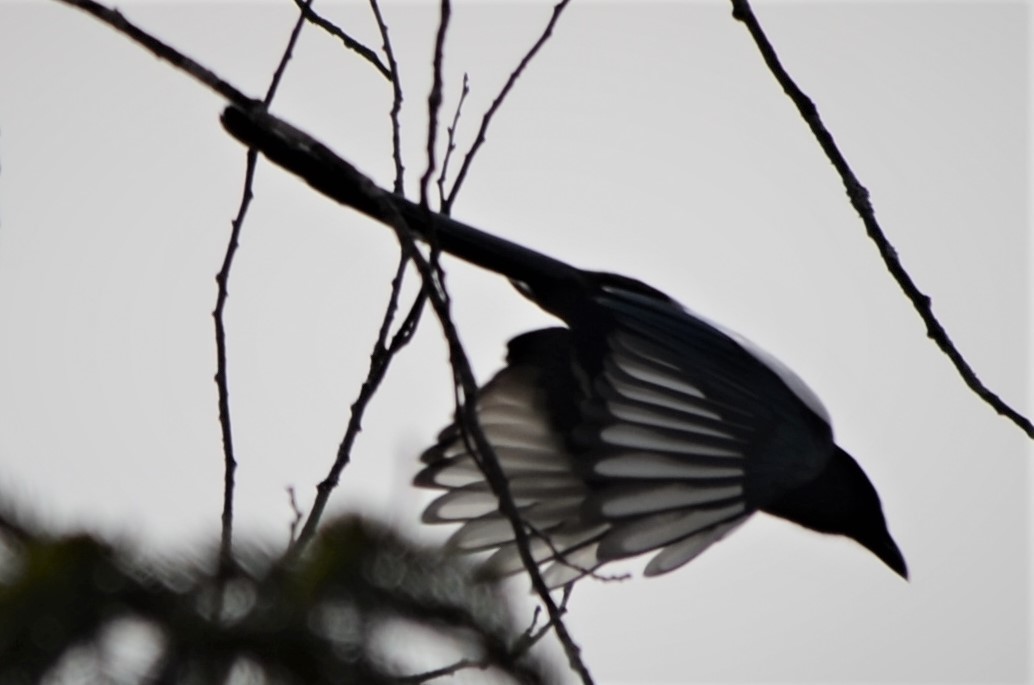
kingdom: Animalia
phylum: Chordata
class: Aves
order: Passeriformes
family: Corvidae
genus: Pica
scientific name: Pica pica
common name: Eurasian magpie
